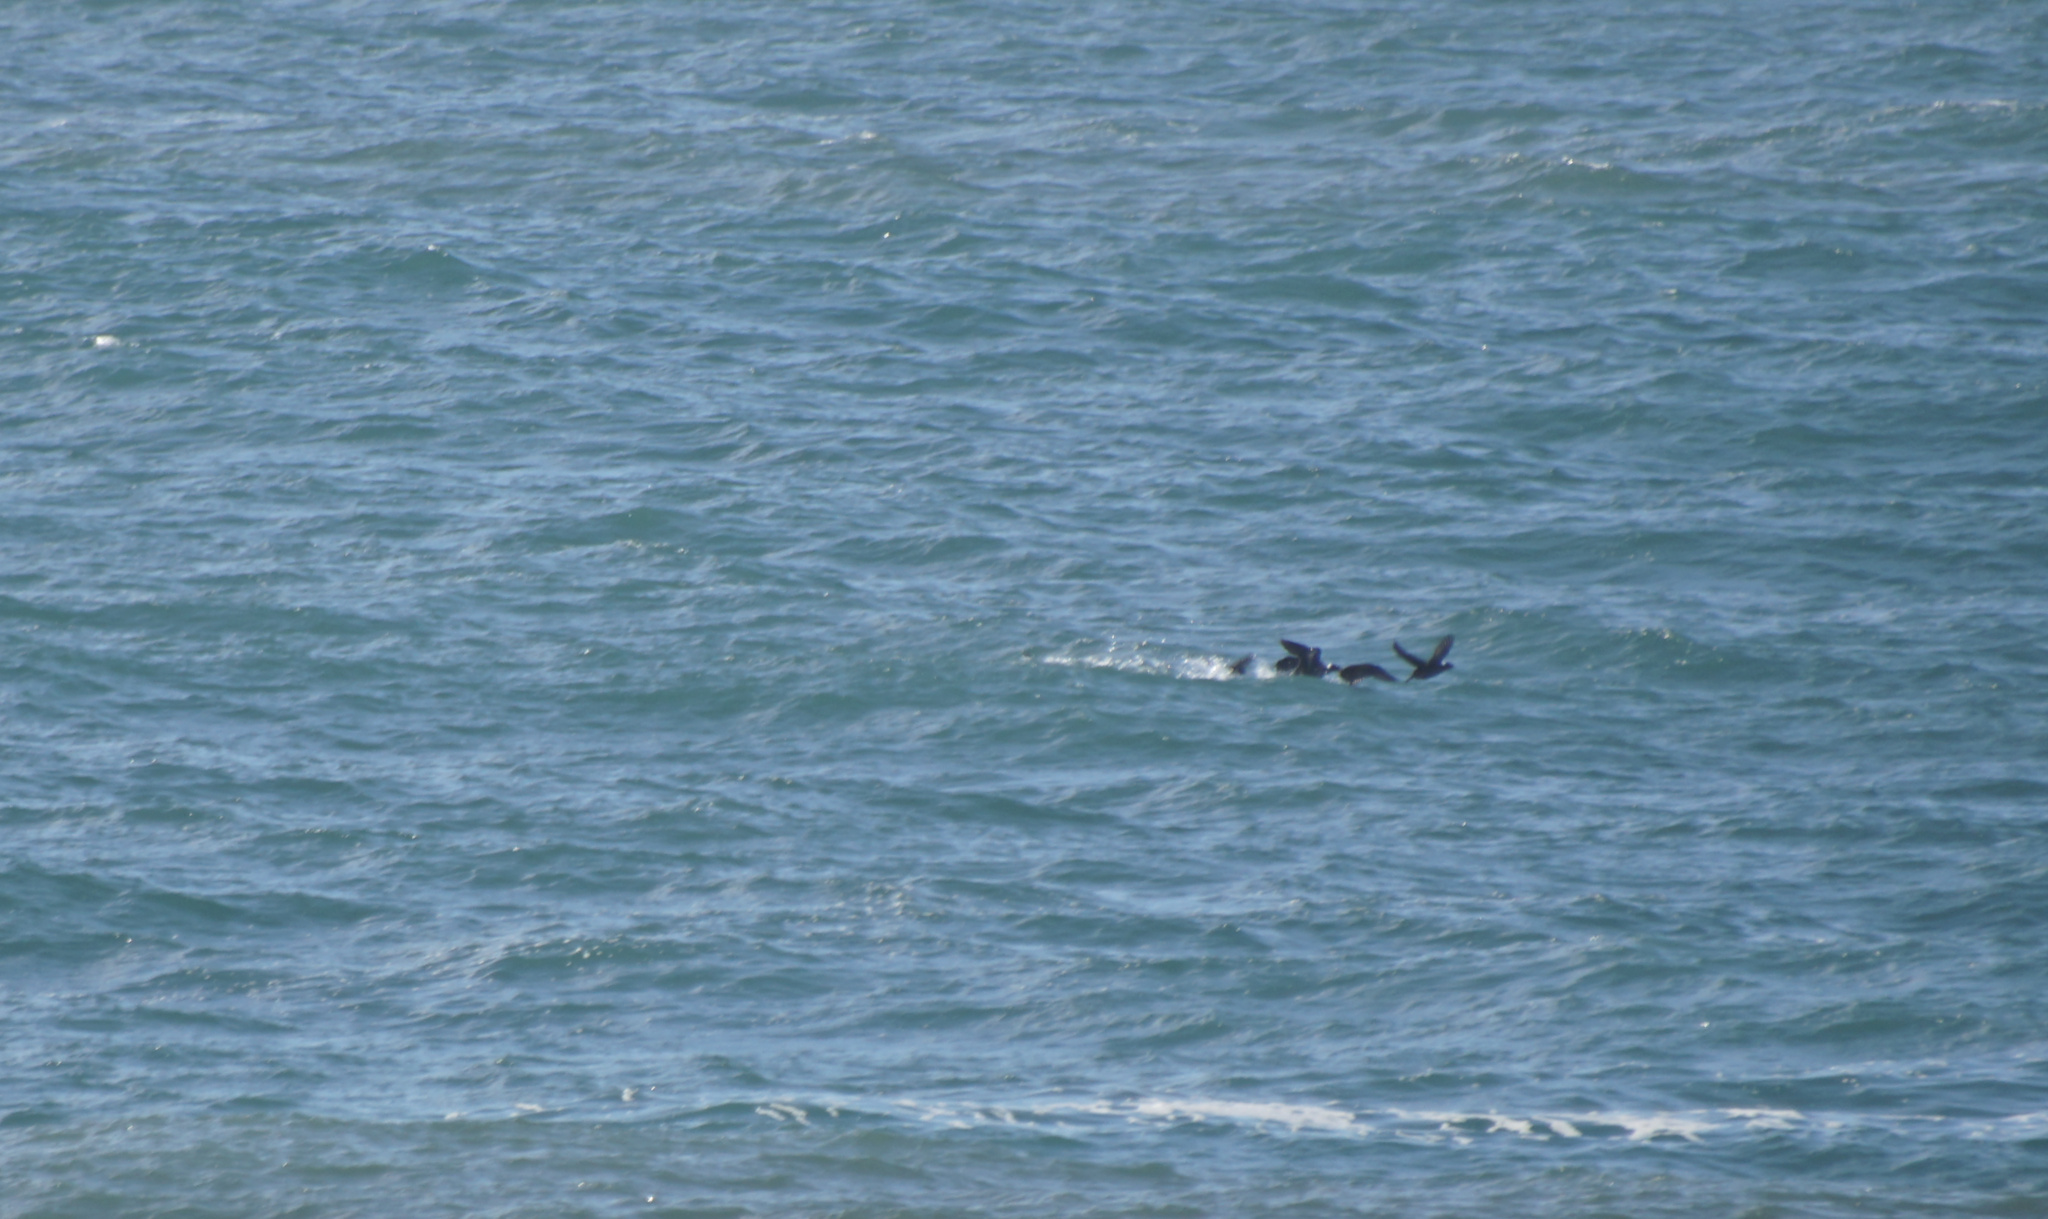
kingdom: Animalia
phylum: Chordata
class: Aves
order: Anseriformes
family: Anatidae
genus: Melanitta
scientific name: Melanitta perspicillata
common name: Surf scoter
